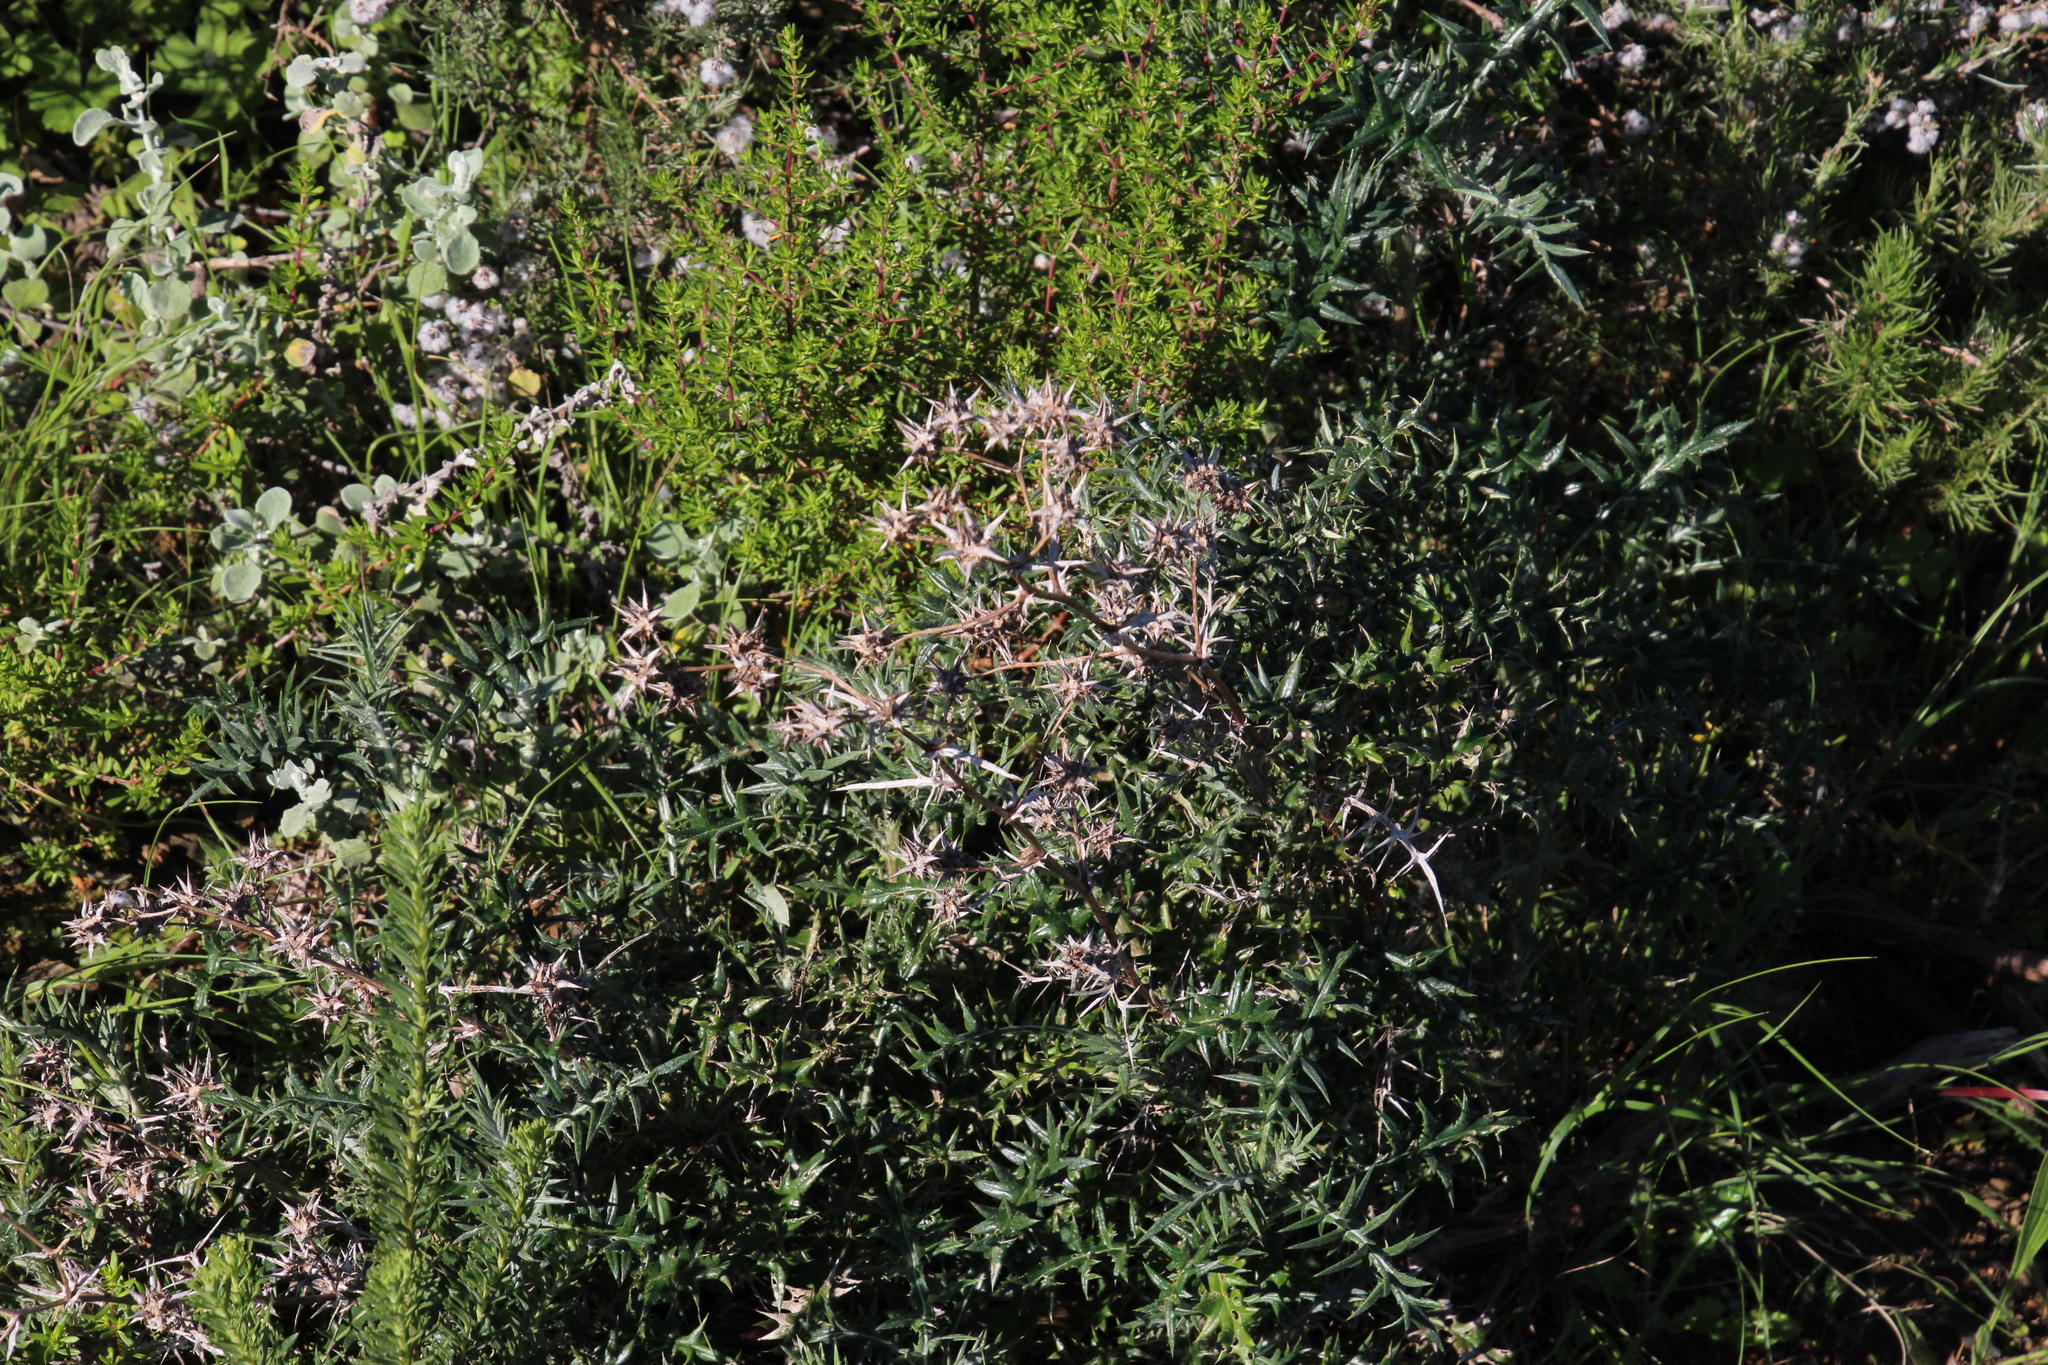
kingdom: Plantae
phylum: Tracheophyta
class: Magnoliopsida
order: Asterales
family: Asteraceae
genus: Berkheya
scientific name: Berkheya rigida
